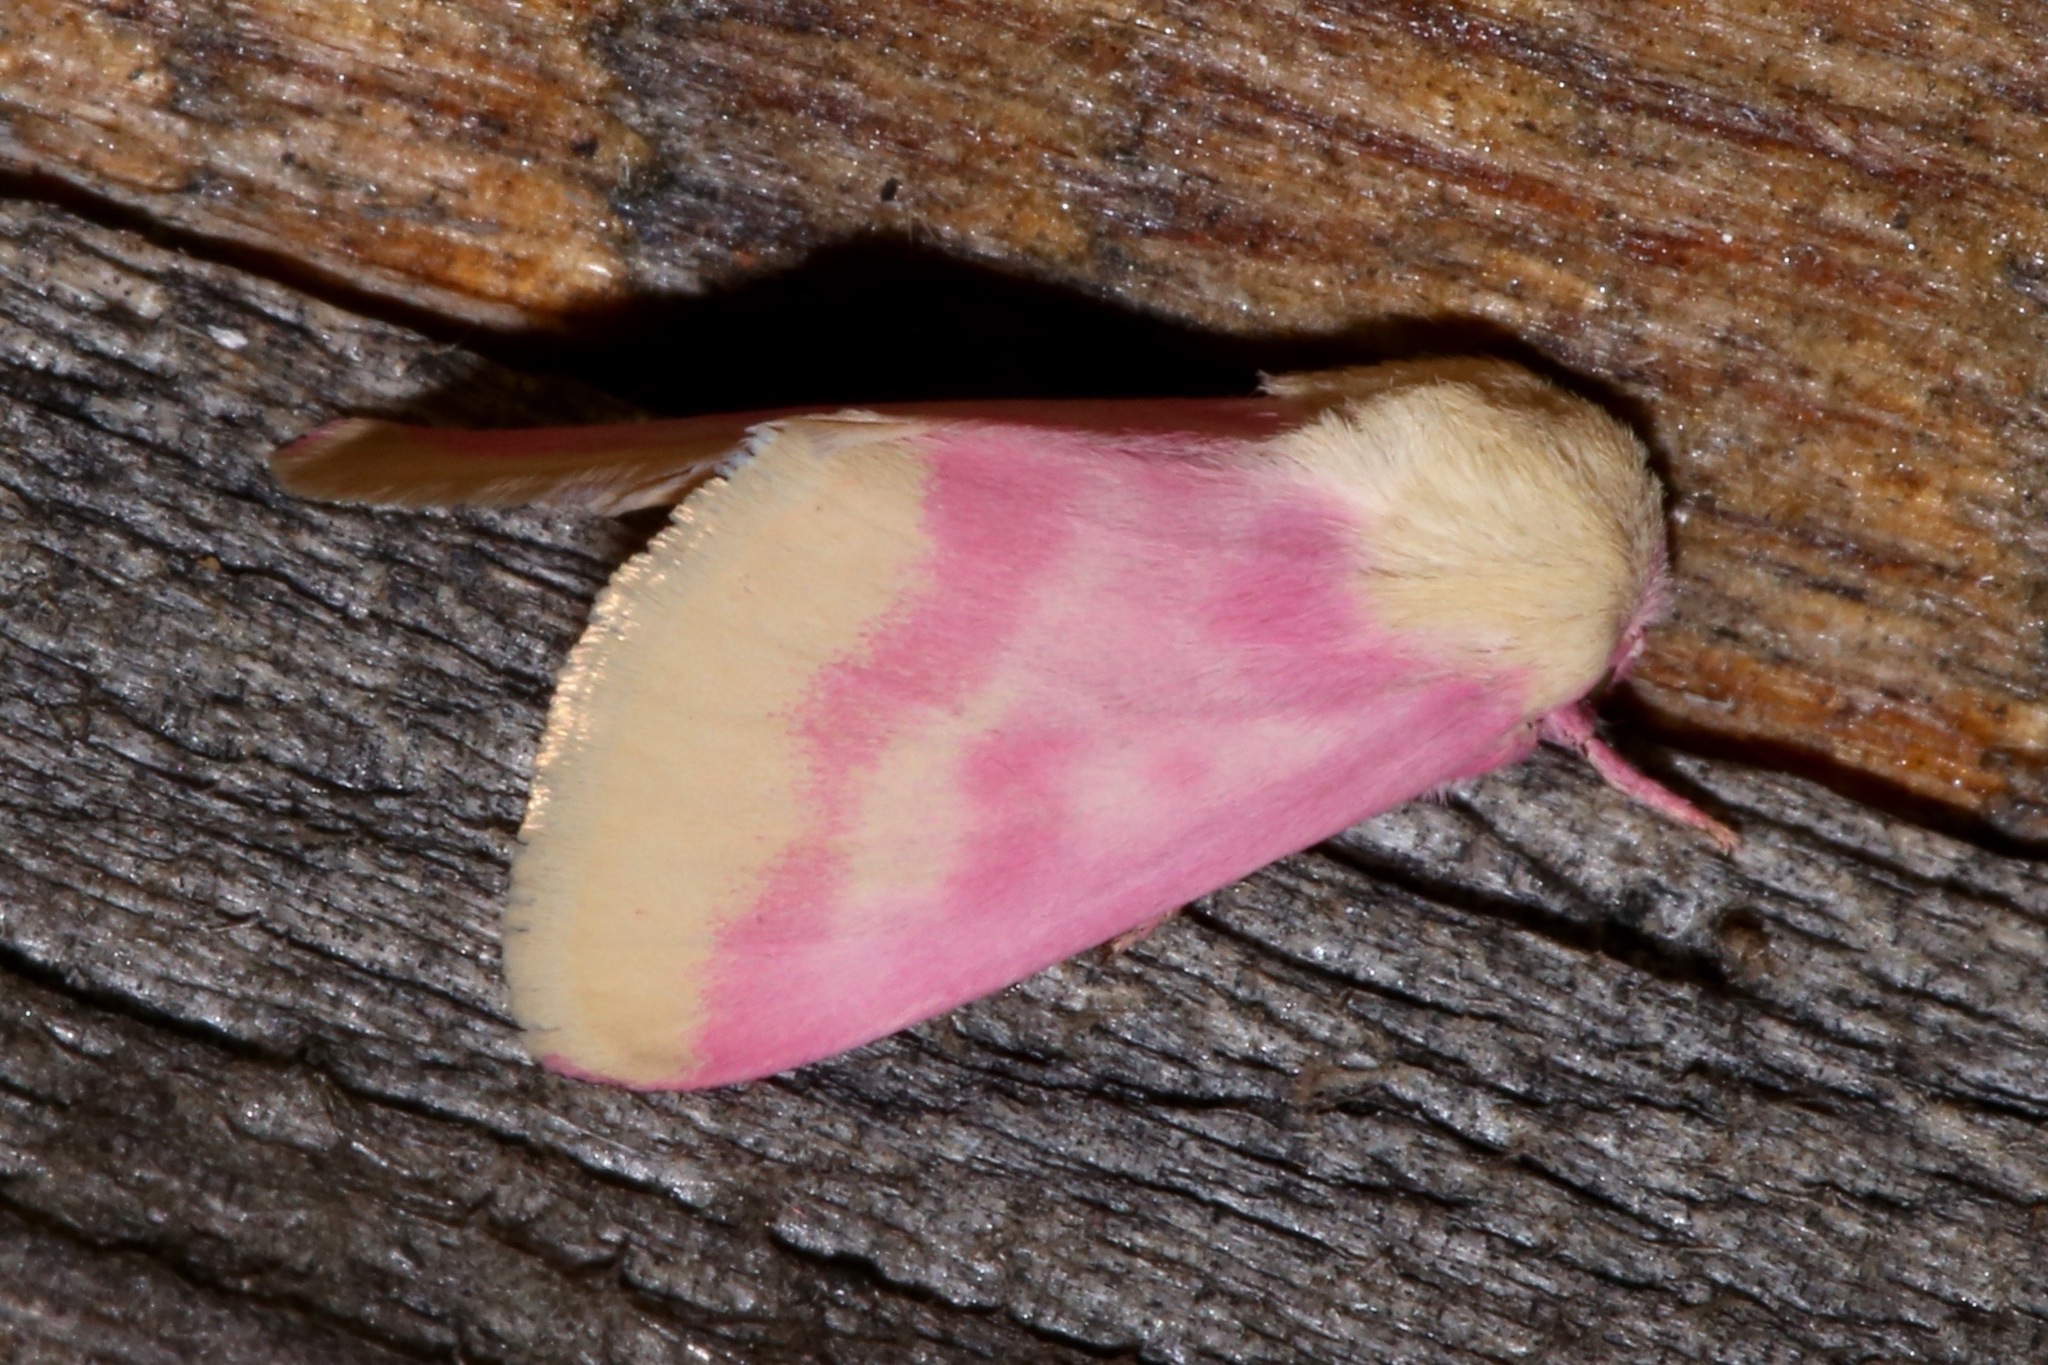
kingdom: Animalia
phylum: Arthropoda
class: Insecta
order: Lepidoptera
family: Noctuidae
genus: Schinia
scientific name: Schinia florida
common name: Primrose moth
